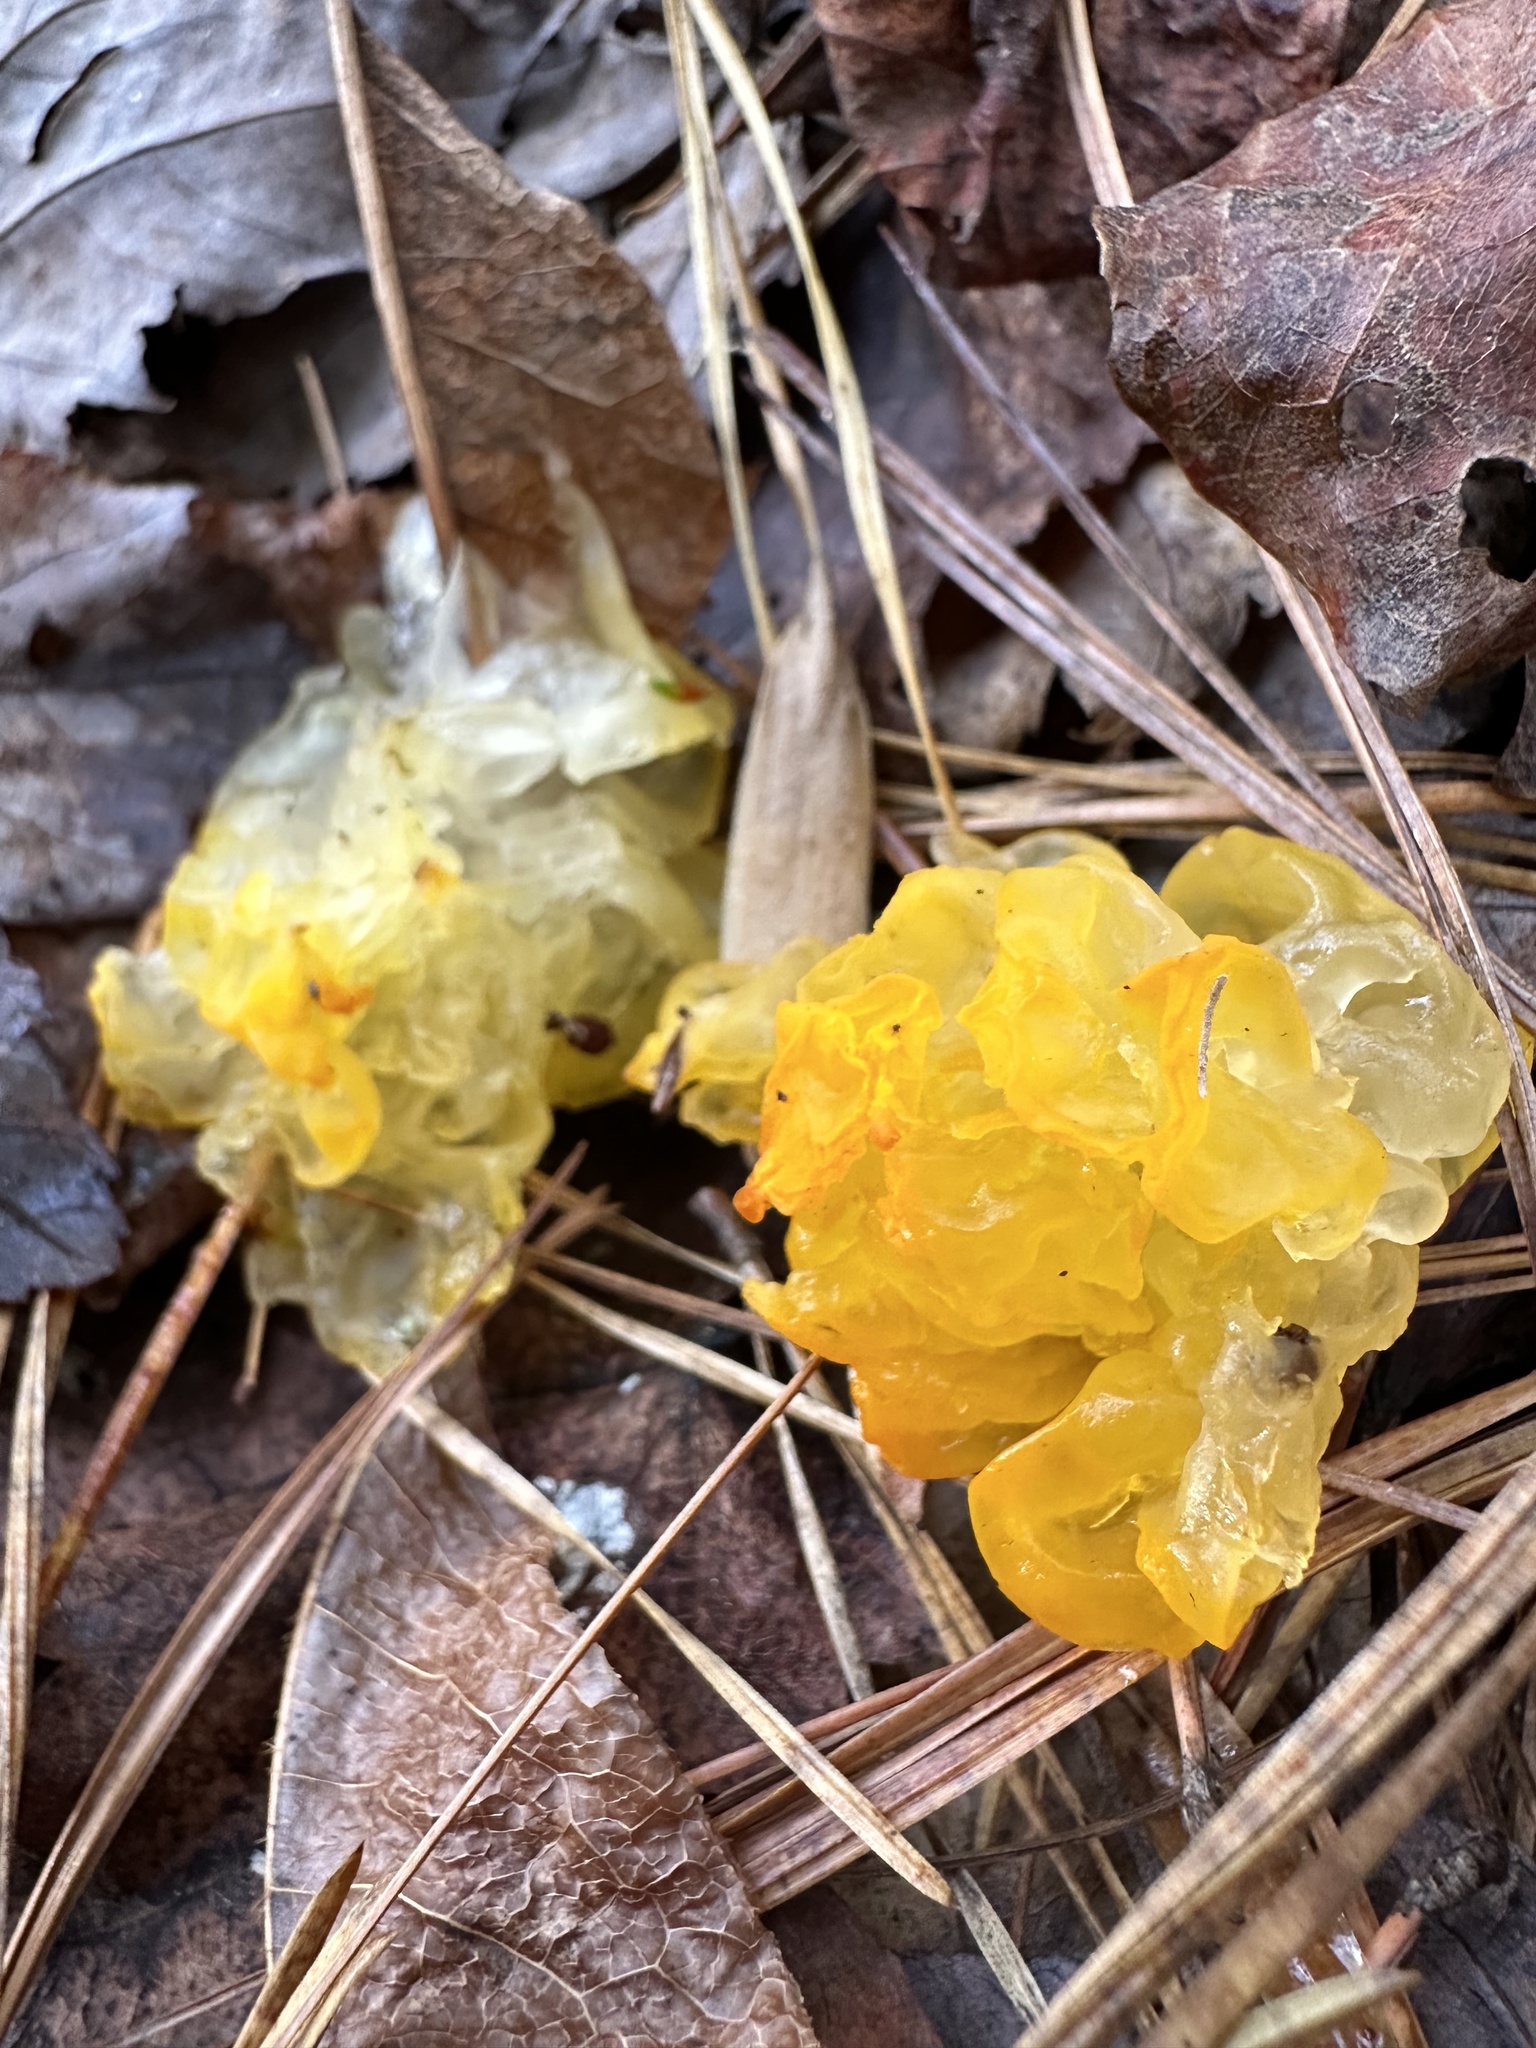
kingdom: Fungi
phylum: Basidiomycota
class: Tremellomycetes
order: Tremellales
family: Tremellaceae
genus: Tremella
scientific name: Tremella mesenterica
